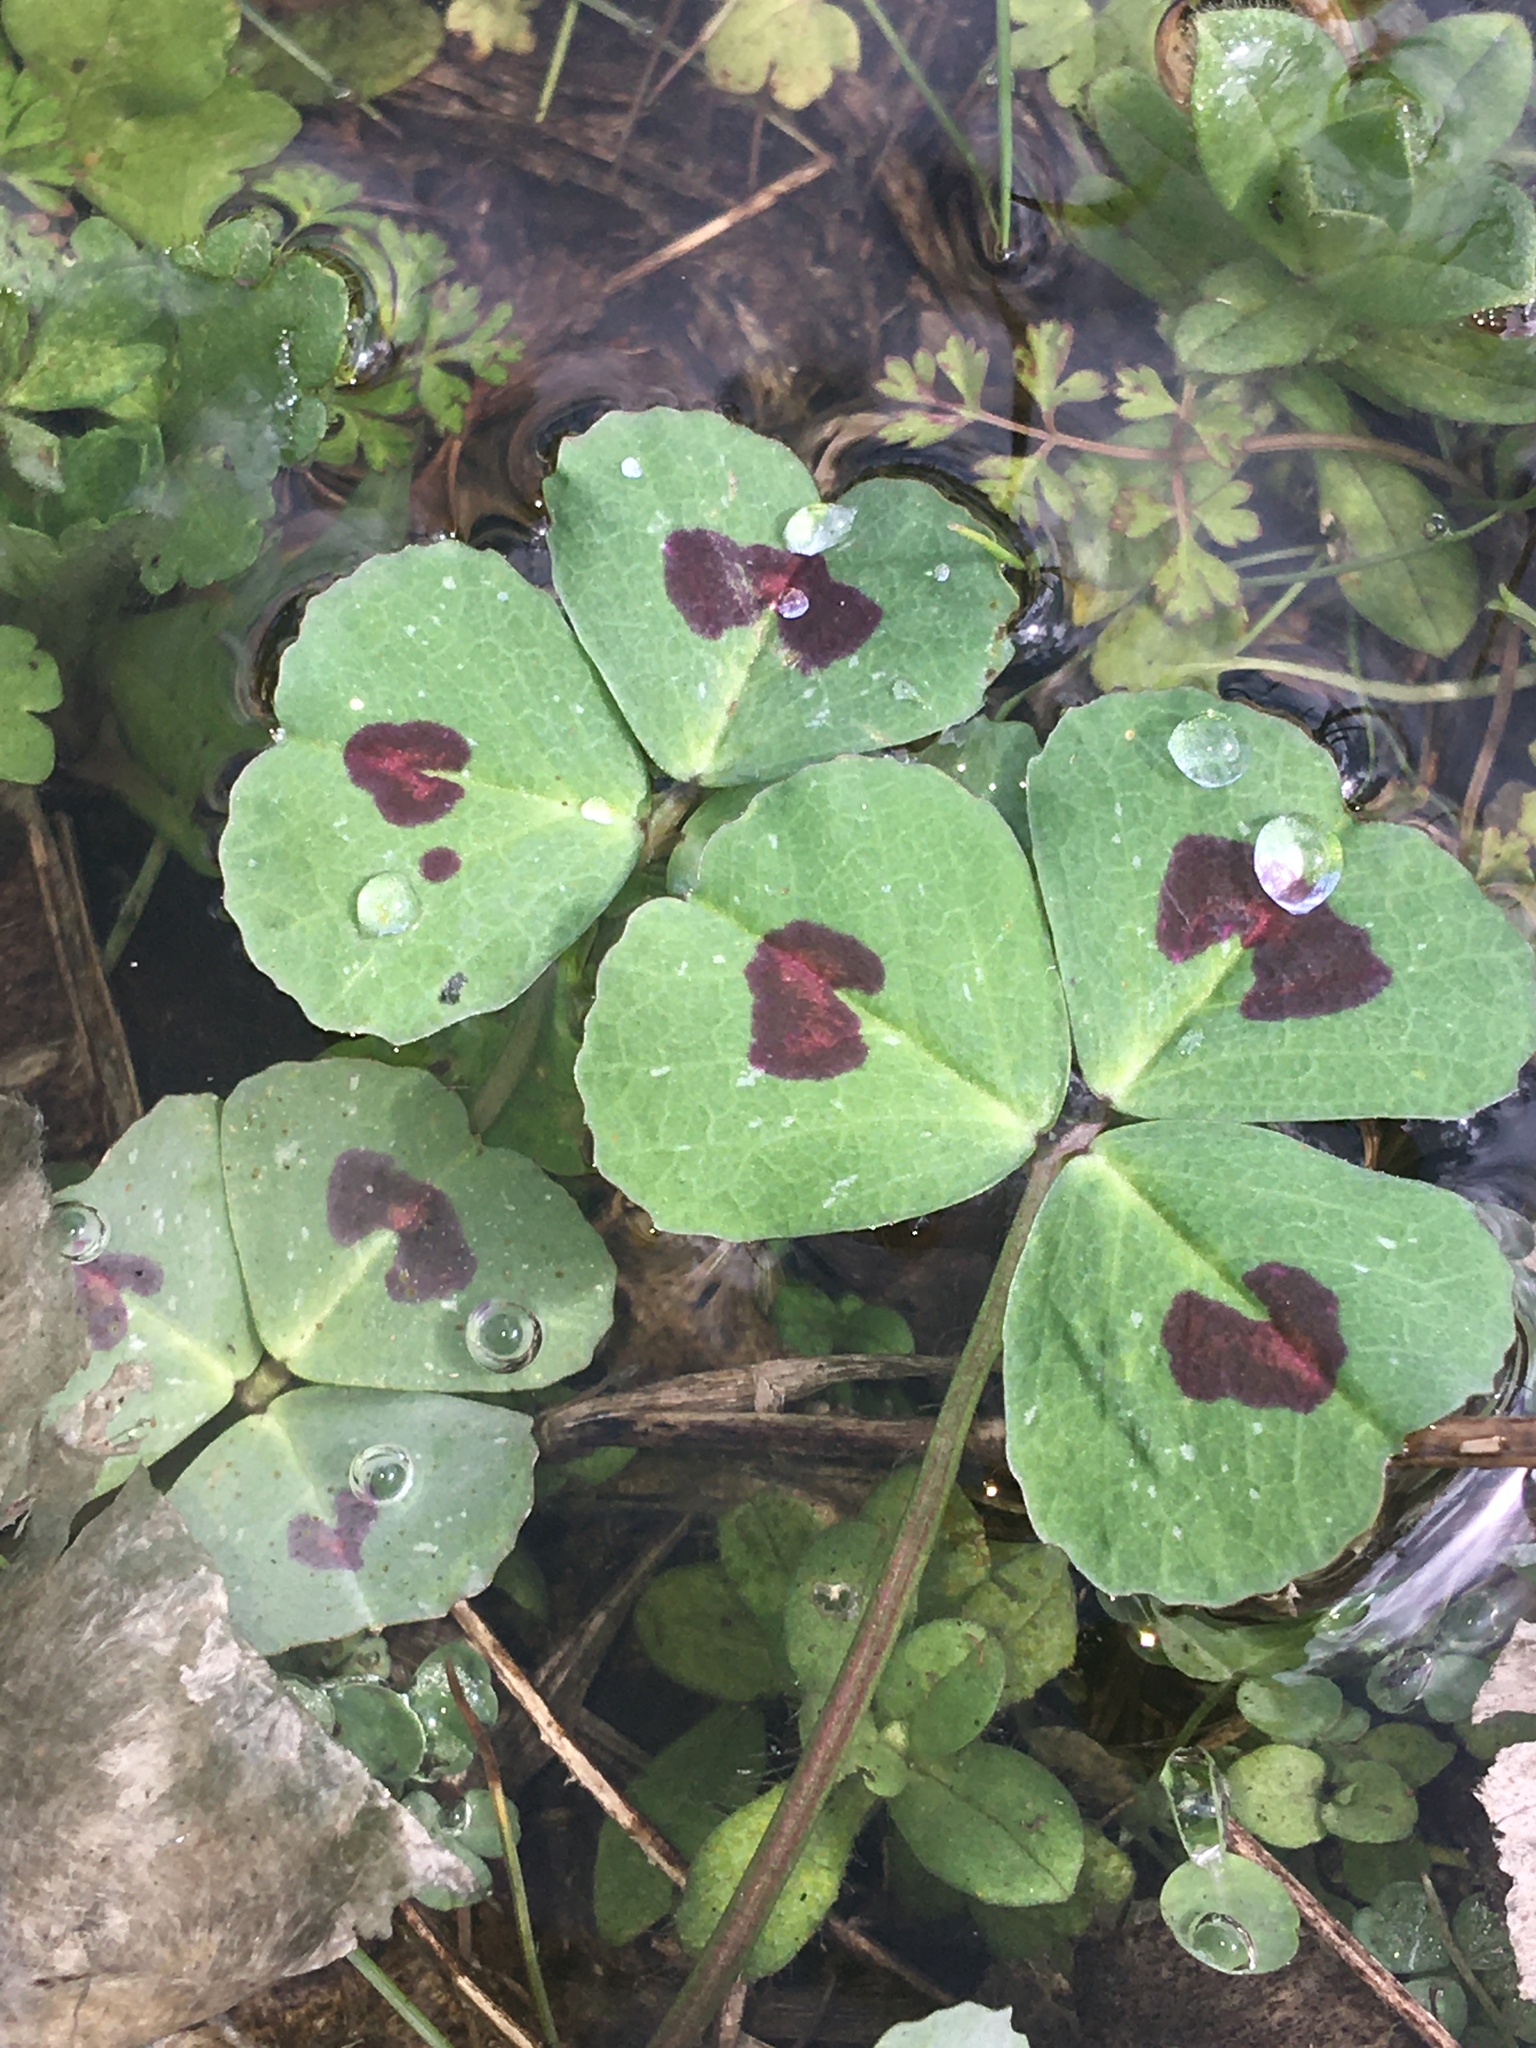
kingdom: Plantae
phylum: Tracheophyta
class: Magnoliopsida
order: Fabales
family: Fabaceae
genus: Medicago
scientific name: Medicago arabica
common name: Spotted medick
